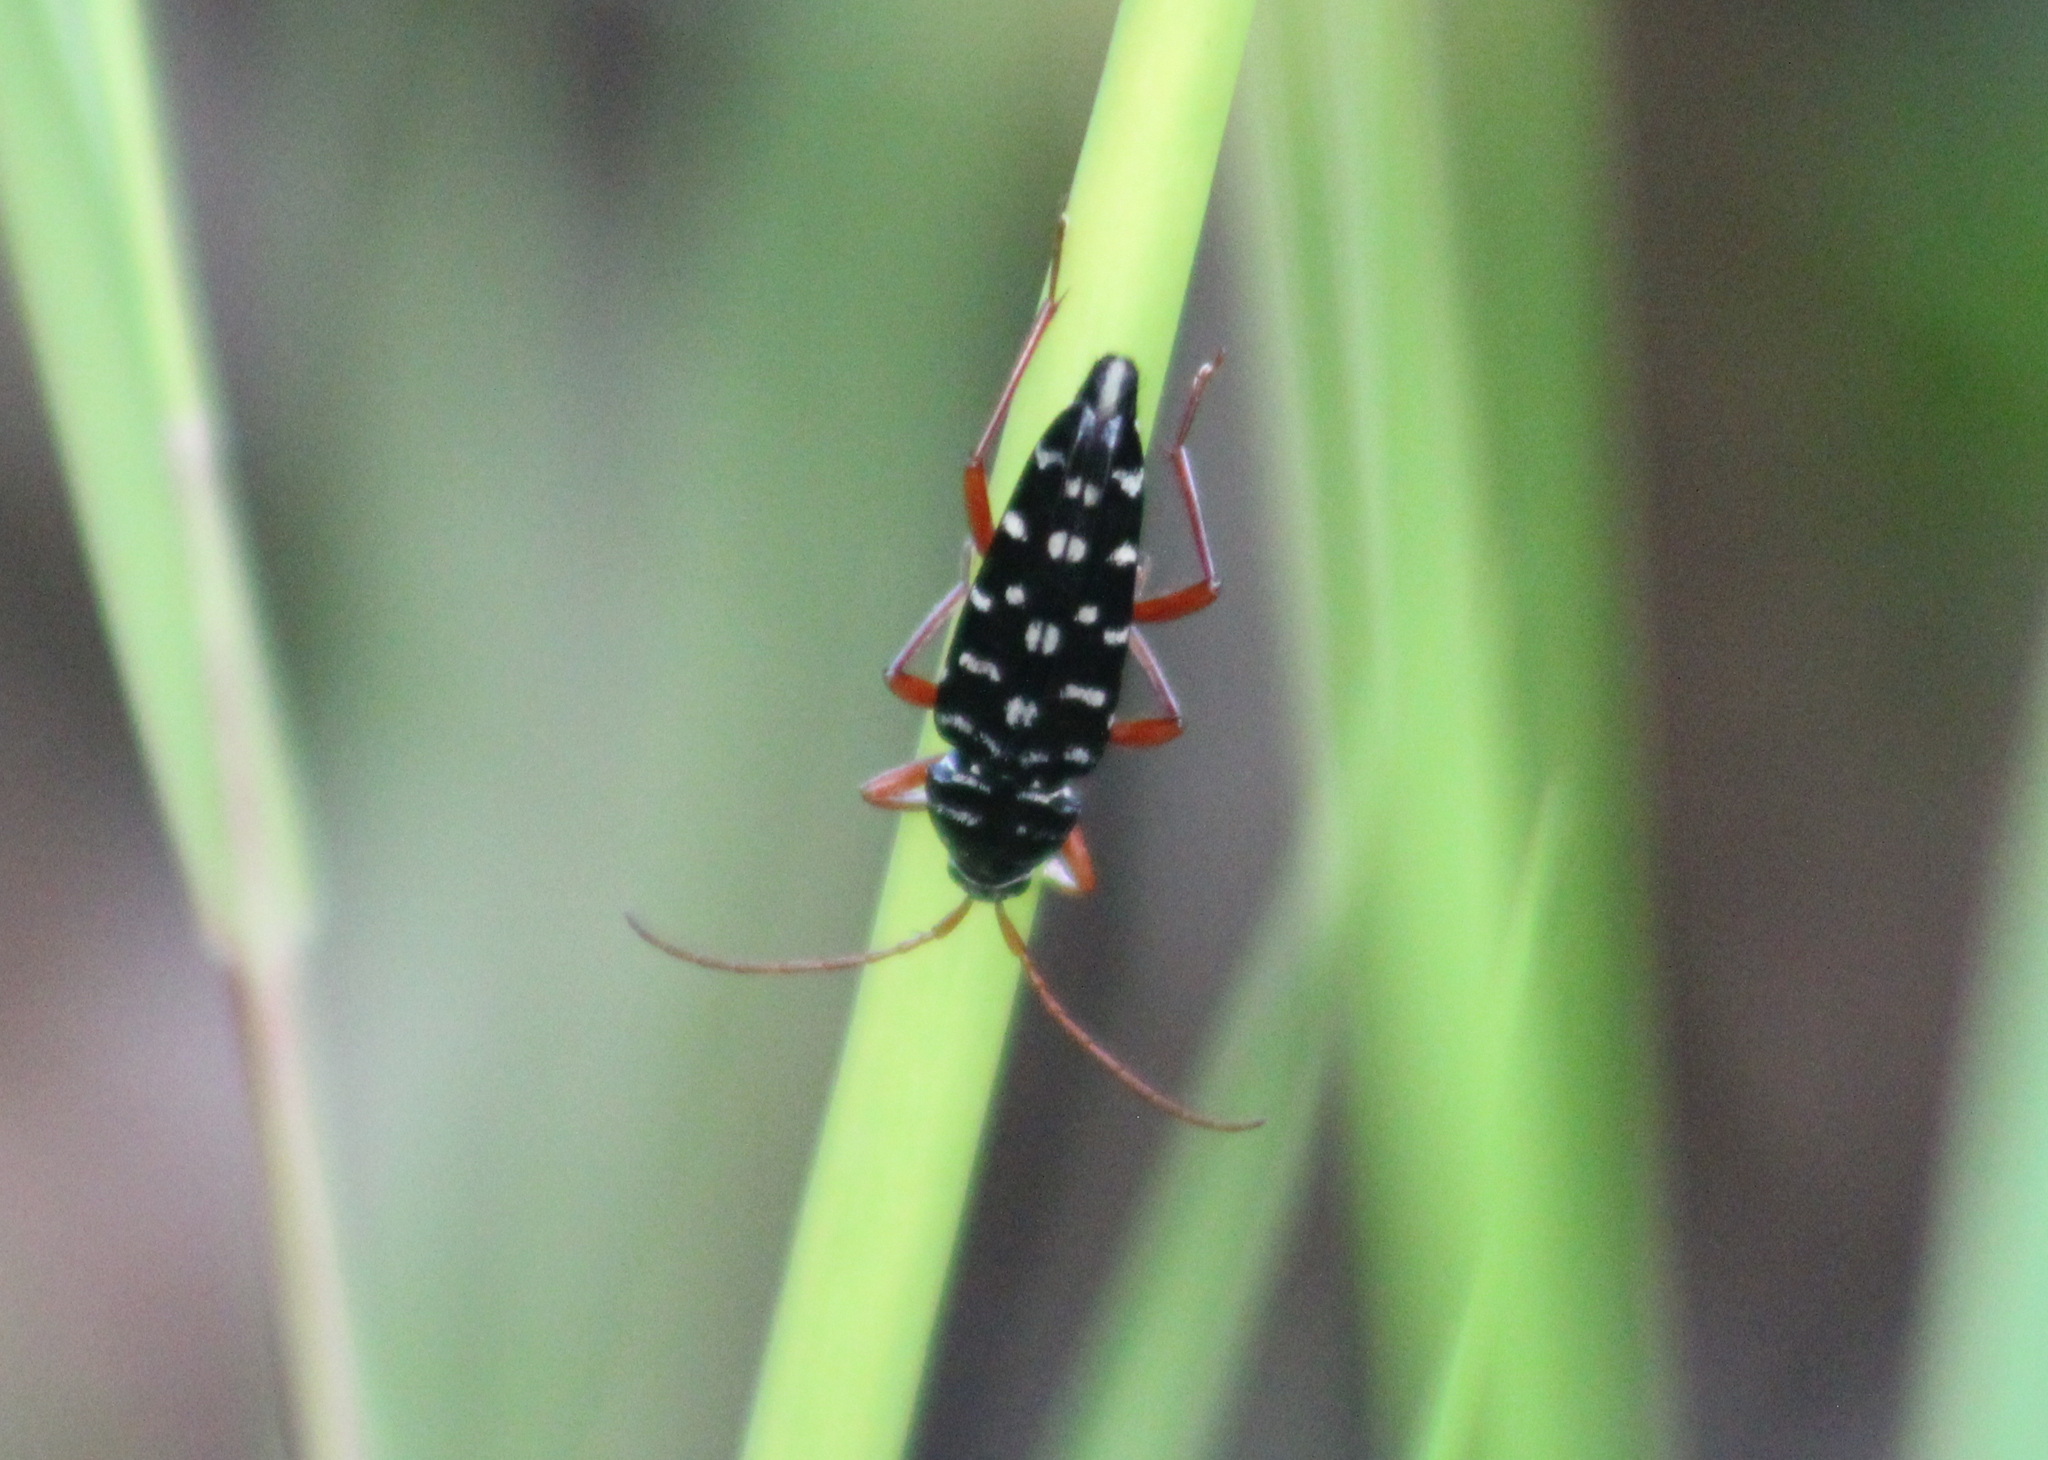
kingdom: Animalia
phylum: Arthropoda
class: Insecta
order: Coleoptera
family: Cerambycidae
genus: Placosternus
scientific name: Placosternus crinicornis
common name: Kiawe round headed borer
